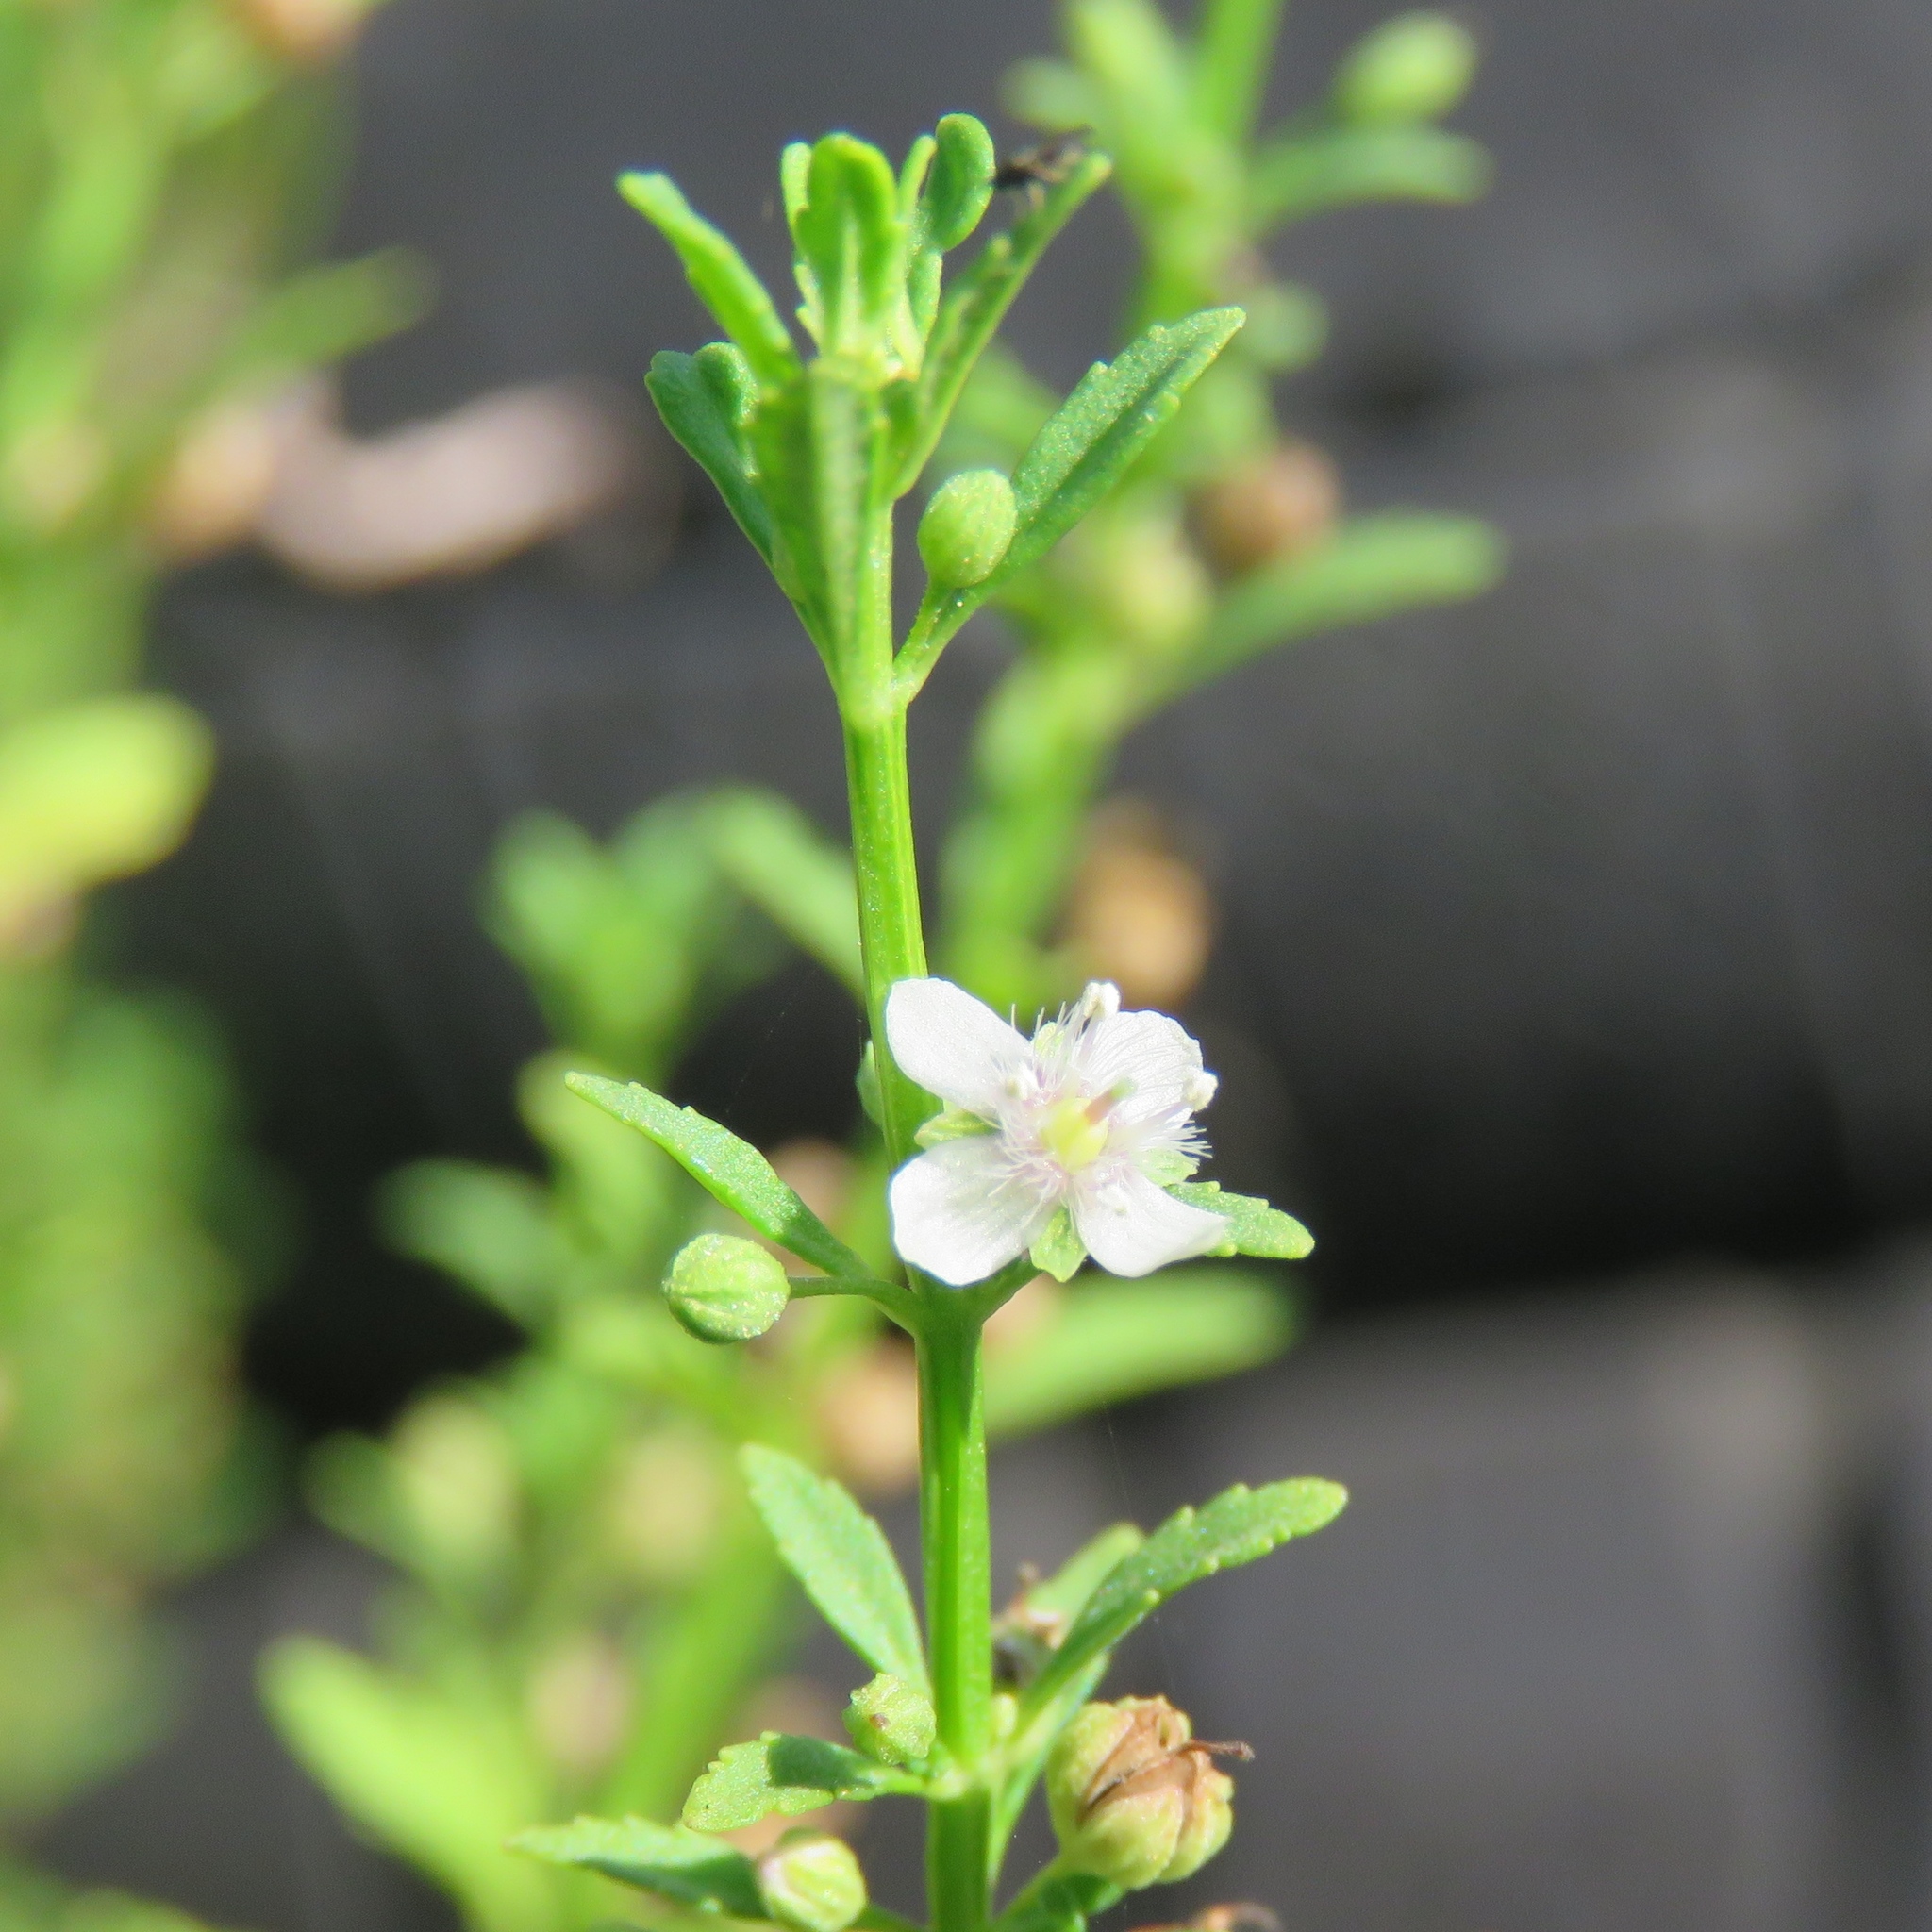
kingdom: Plantae
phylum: Tracheophyta
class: Magnoliopsida
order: Lamiales
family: Plantaginaceae
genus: Scoparia
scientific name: Scoparia dulcis
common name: Scoparia-weed
